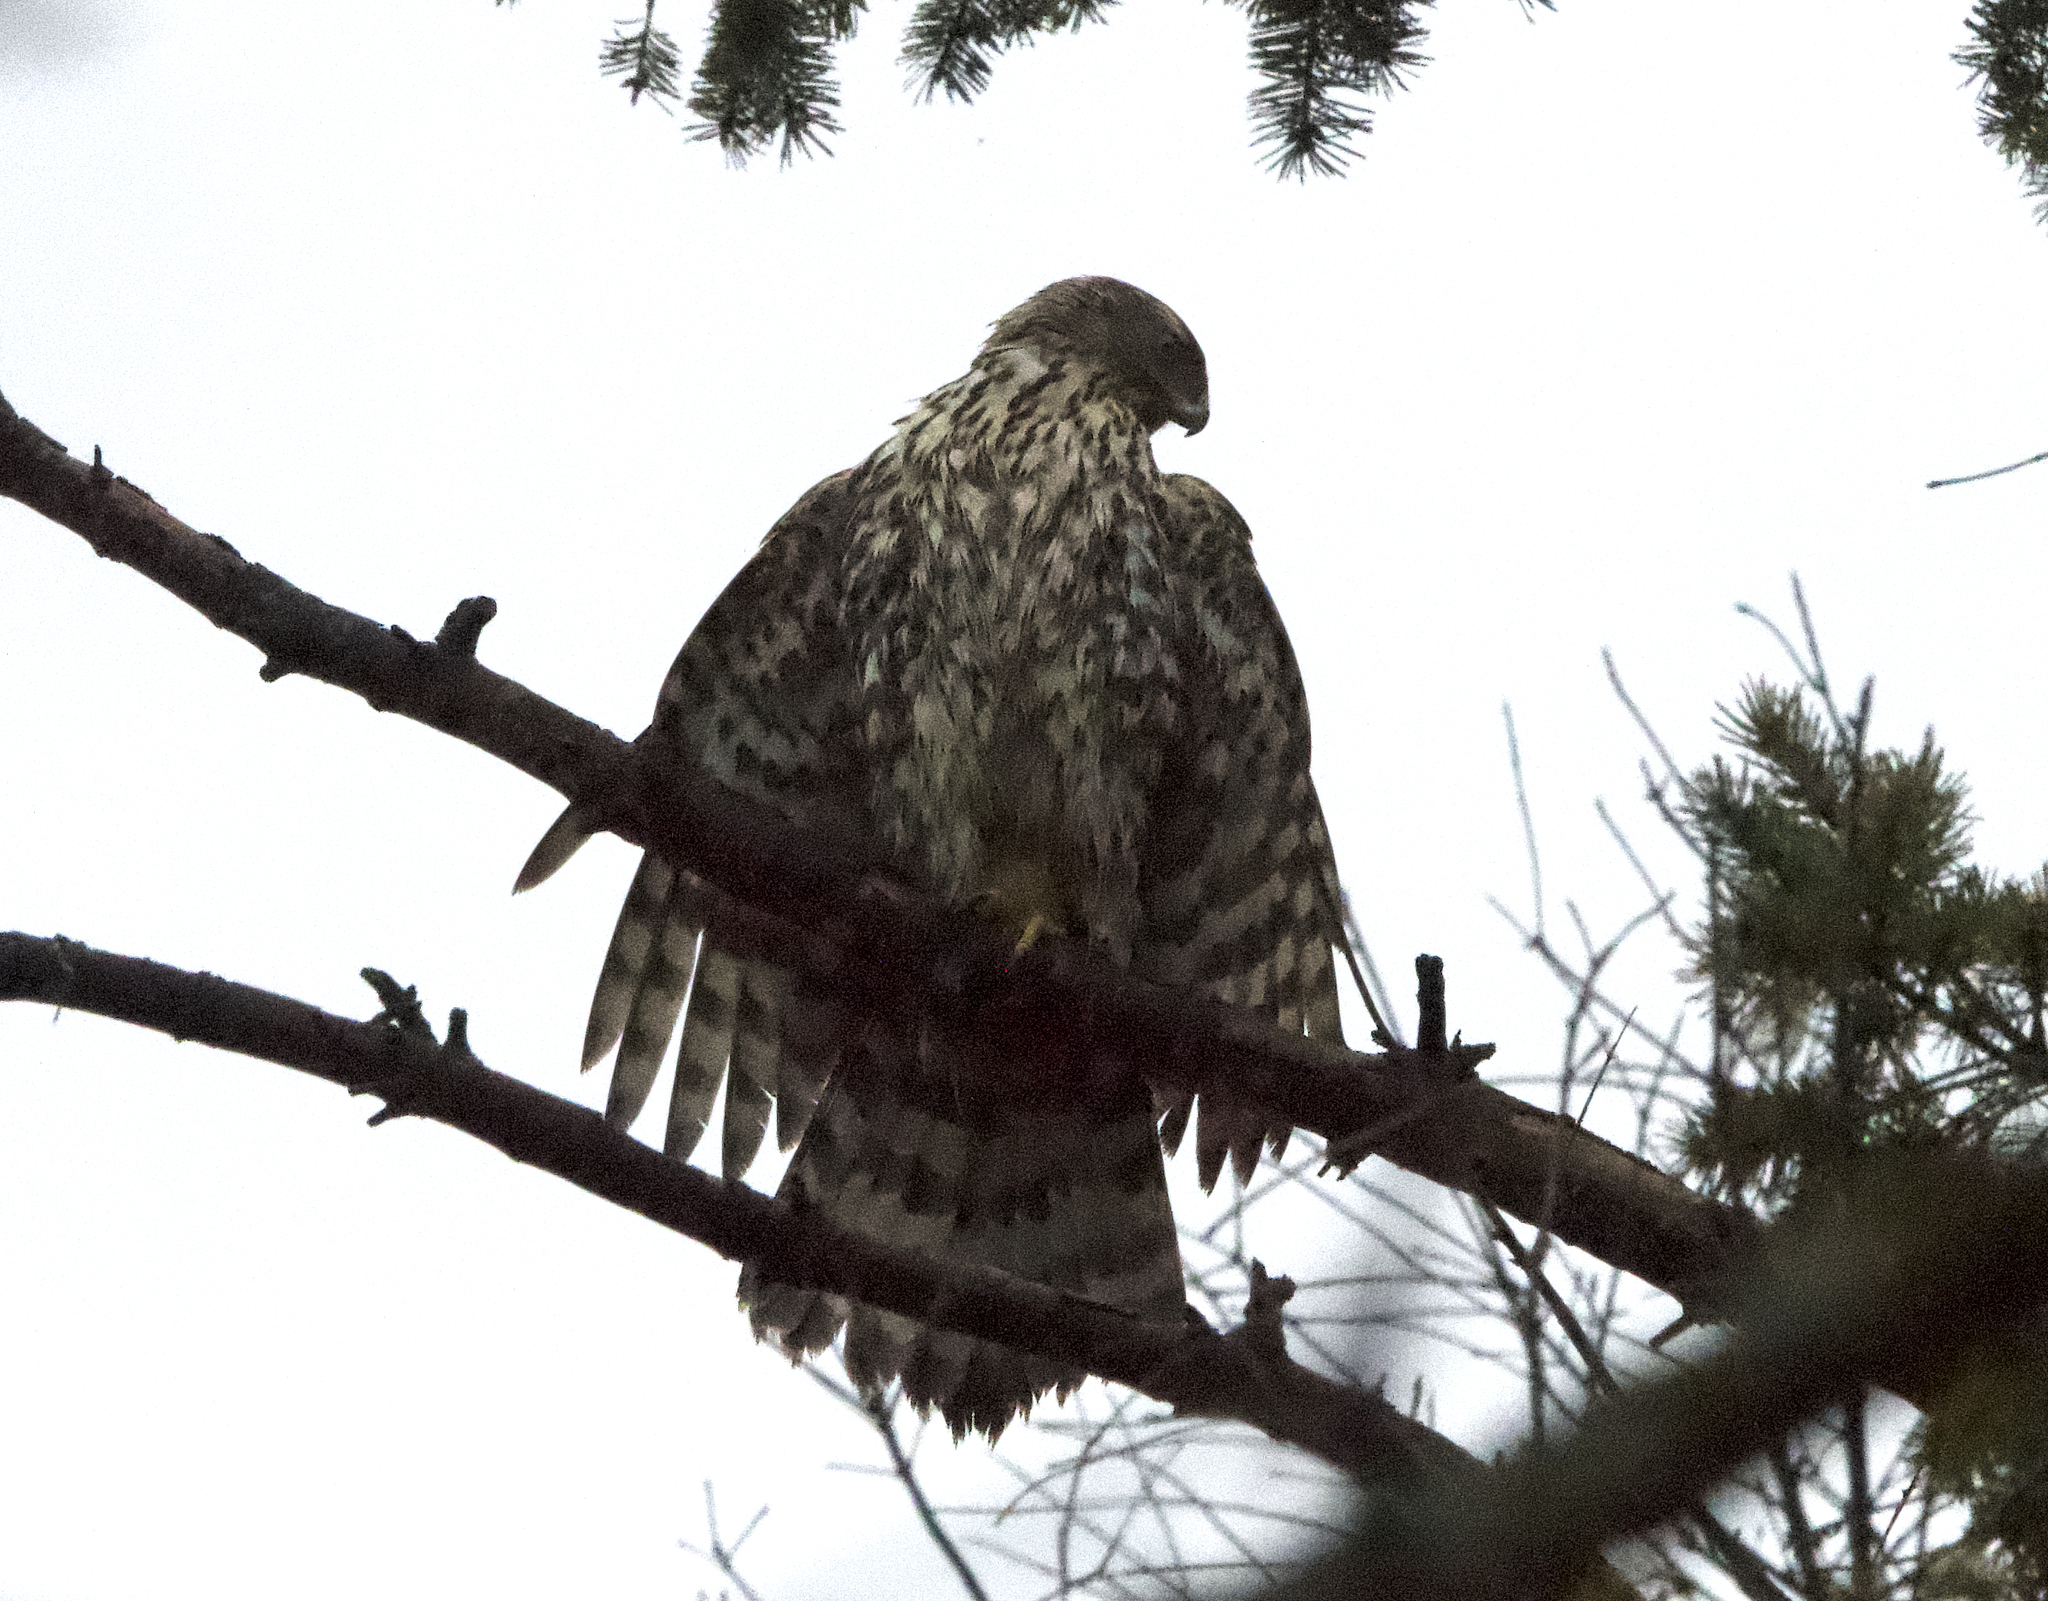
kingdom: Animalia
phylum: Chordata
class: Aves
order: Accipitriformes
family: Accipitridae
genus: Accipiter
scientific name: Accipiter gentilis
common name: Northern goshawk
